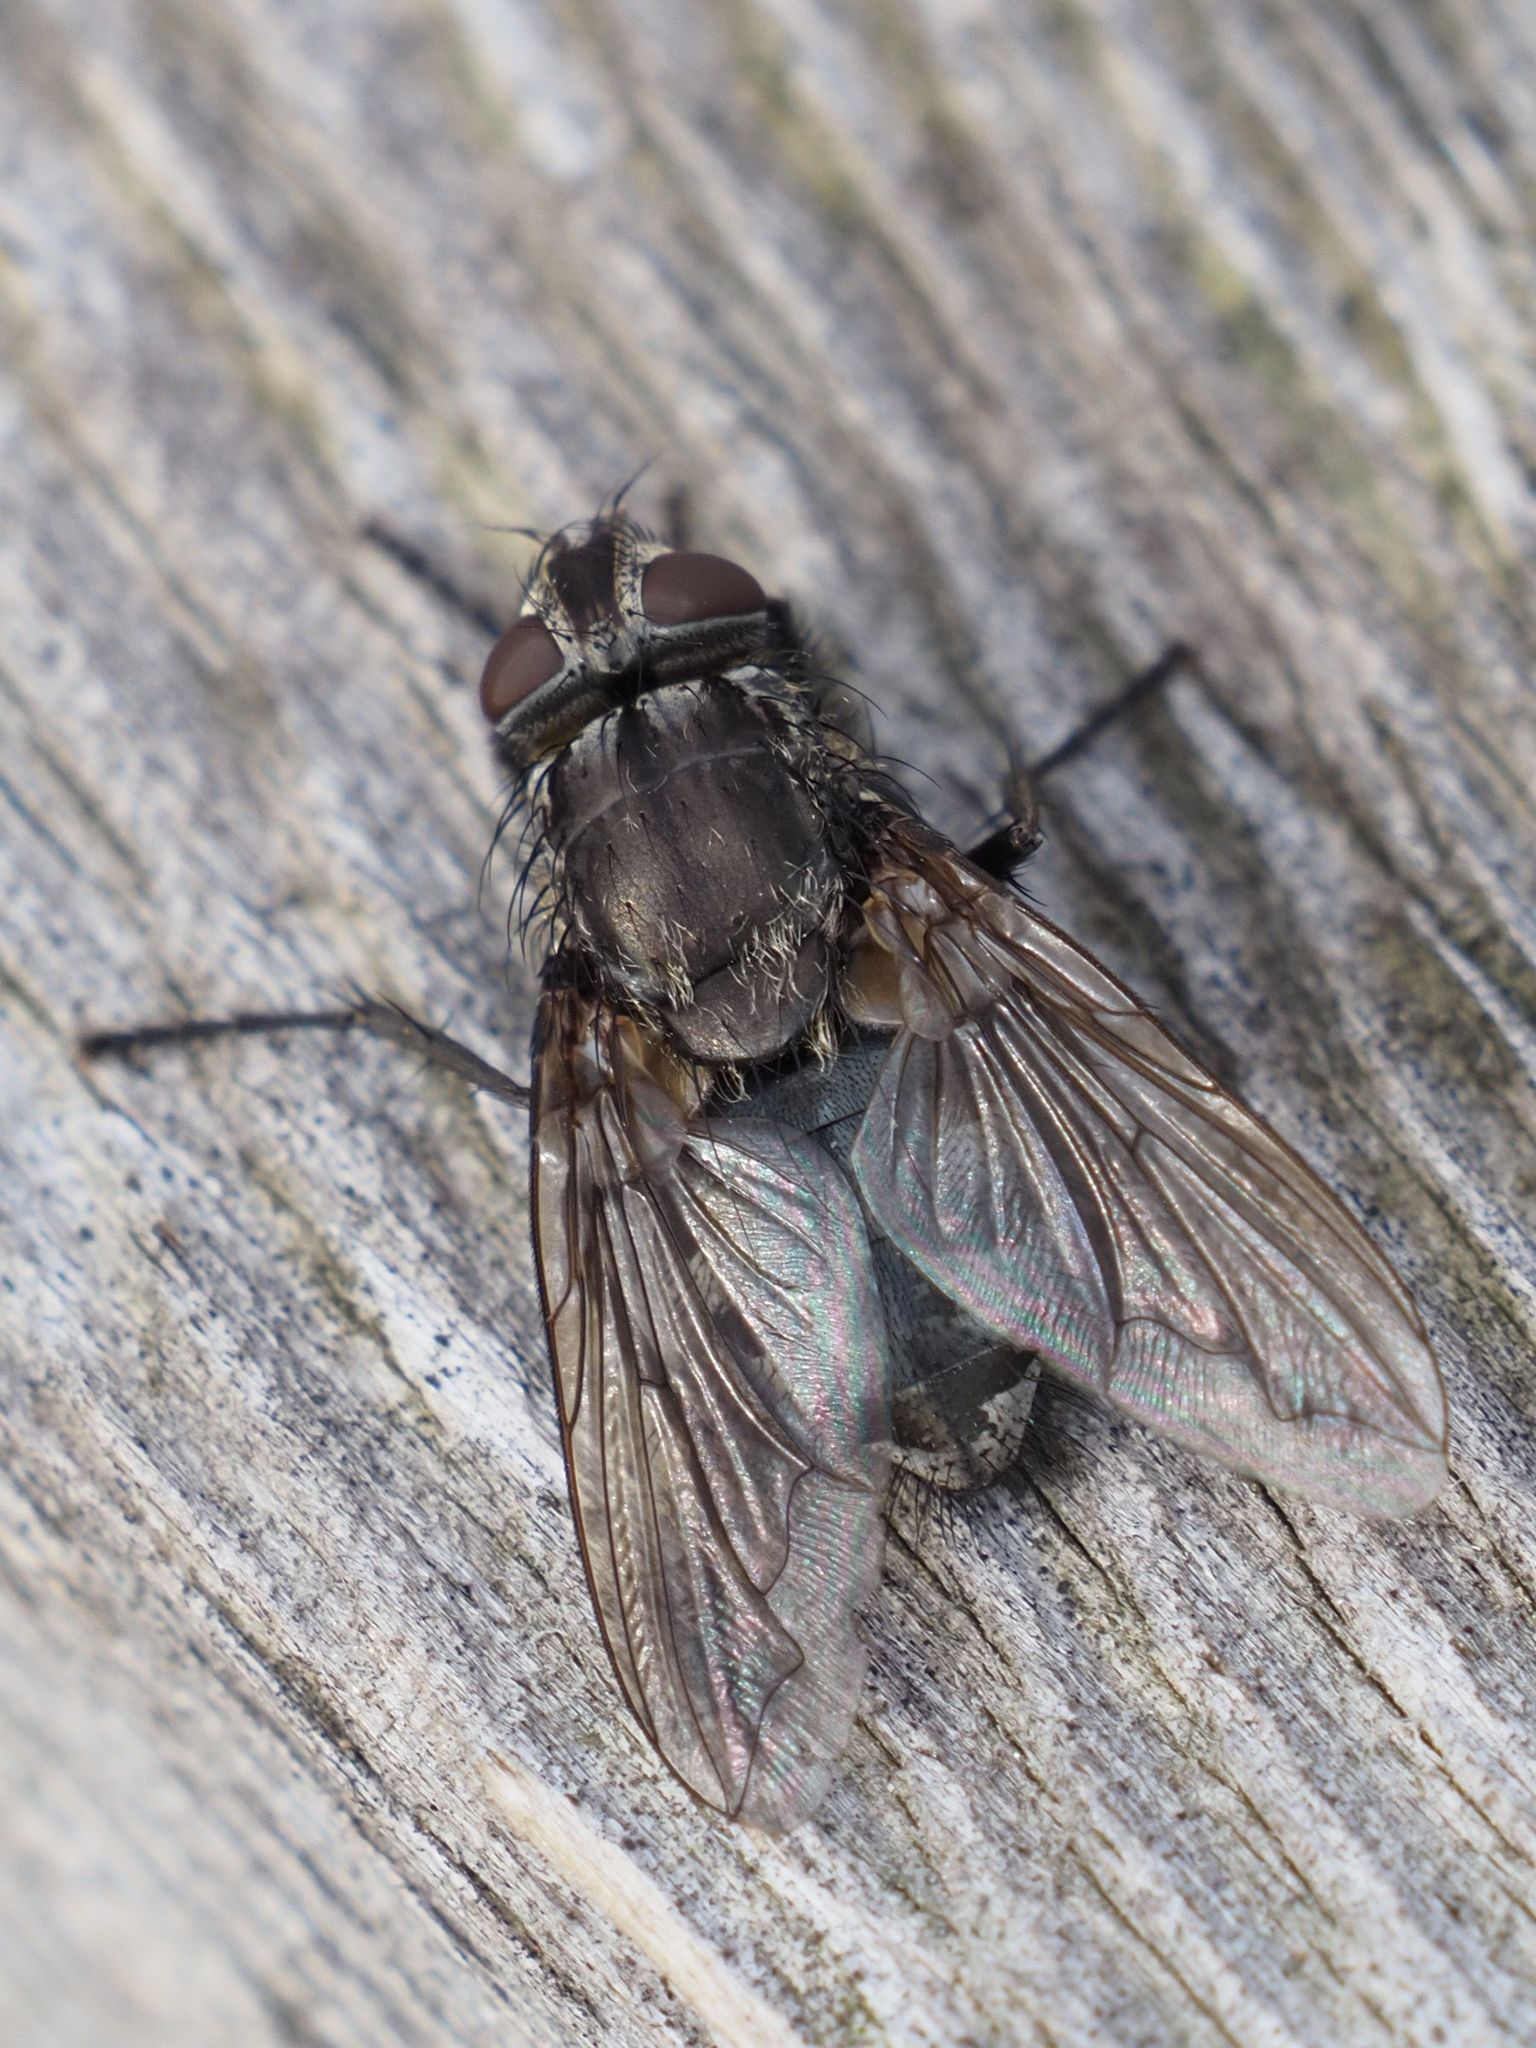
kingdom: Animalia
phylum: Arthropoda
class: Insecta
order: Diptera
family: Polleniidae
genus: Pollenia
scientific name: Pollenia vagabunda
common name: Vagabund cluster fly
